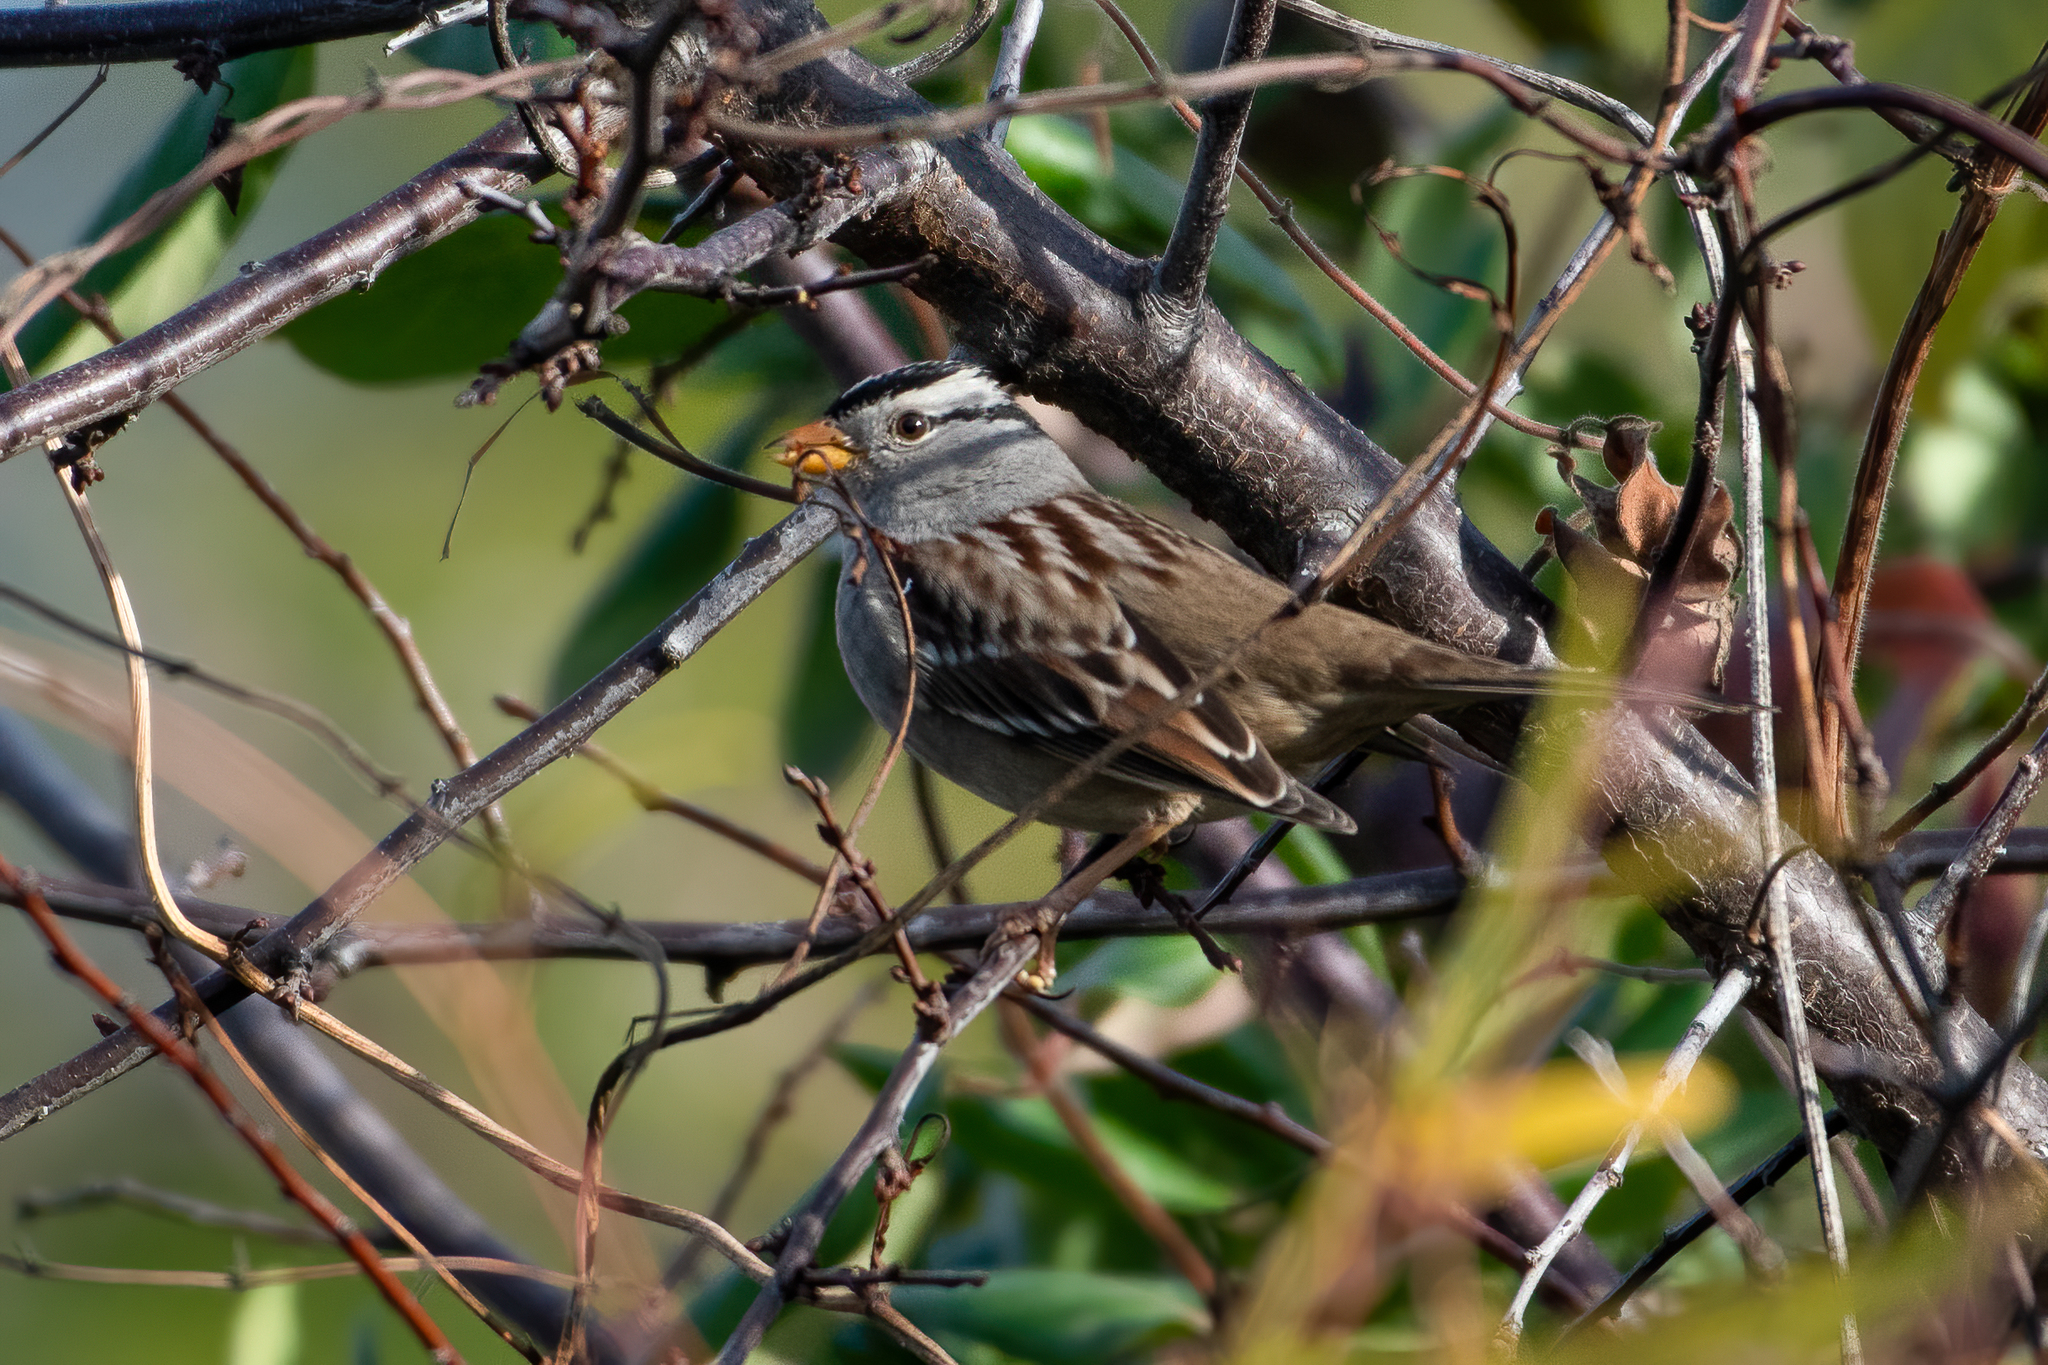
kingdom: Animalia
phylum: Chordata
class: Aves
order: Passeriformes
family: Passerellidae
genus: Zonotrichia
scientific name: Zonotrichia leucophrys
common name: White-crowned sparrow
